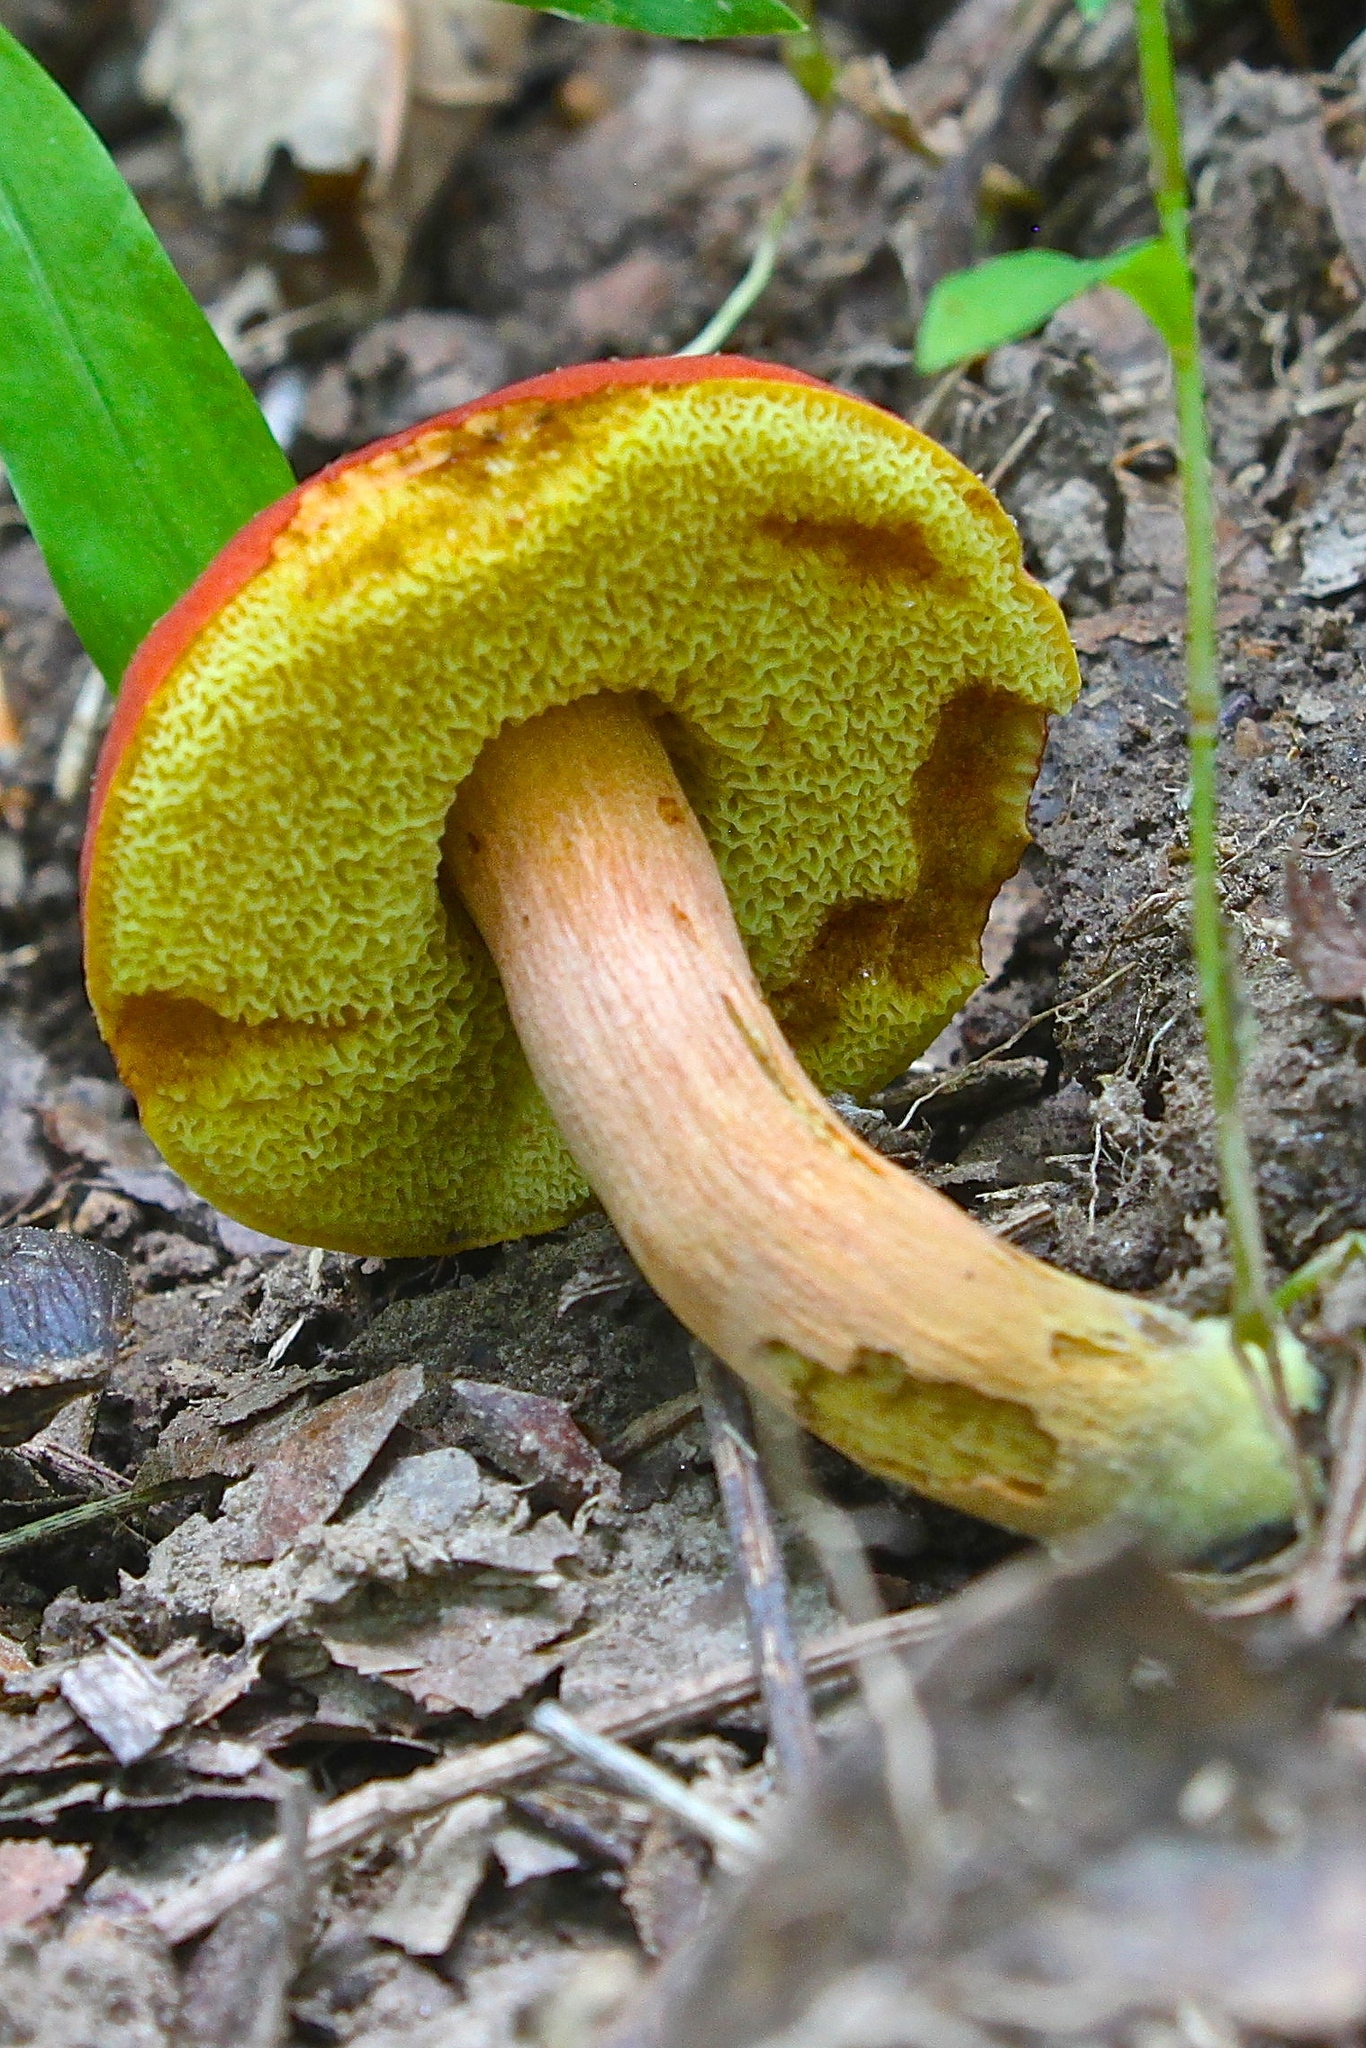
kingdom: Fungi
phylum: Basidiomycota
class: Agaricomycetes
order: Boletales
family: Boletaceae
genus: Hortiboletus
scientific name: Hortiboletus campestris
